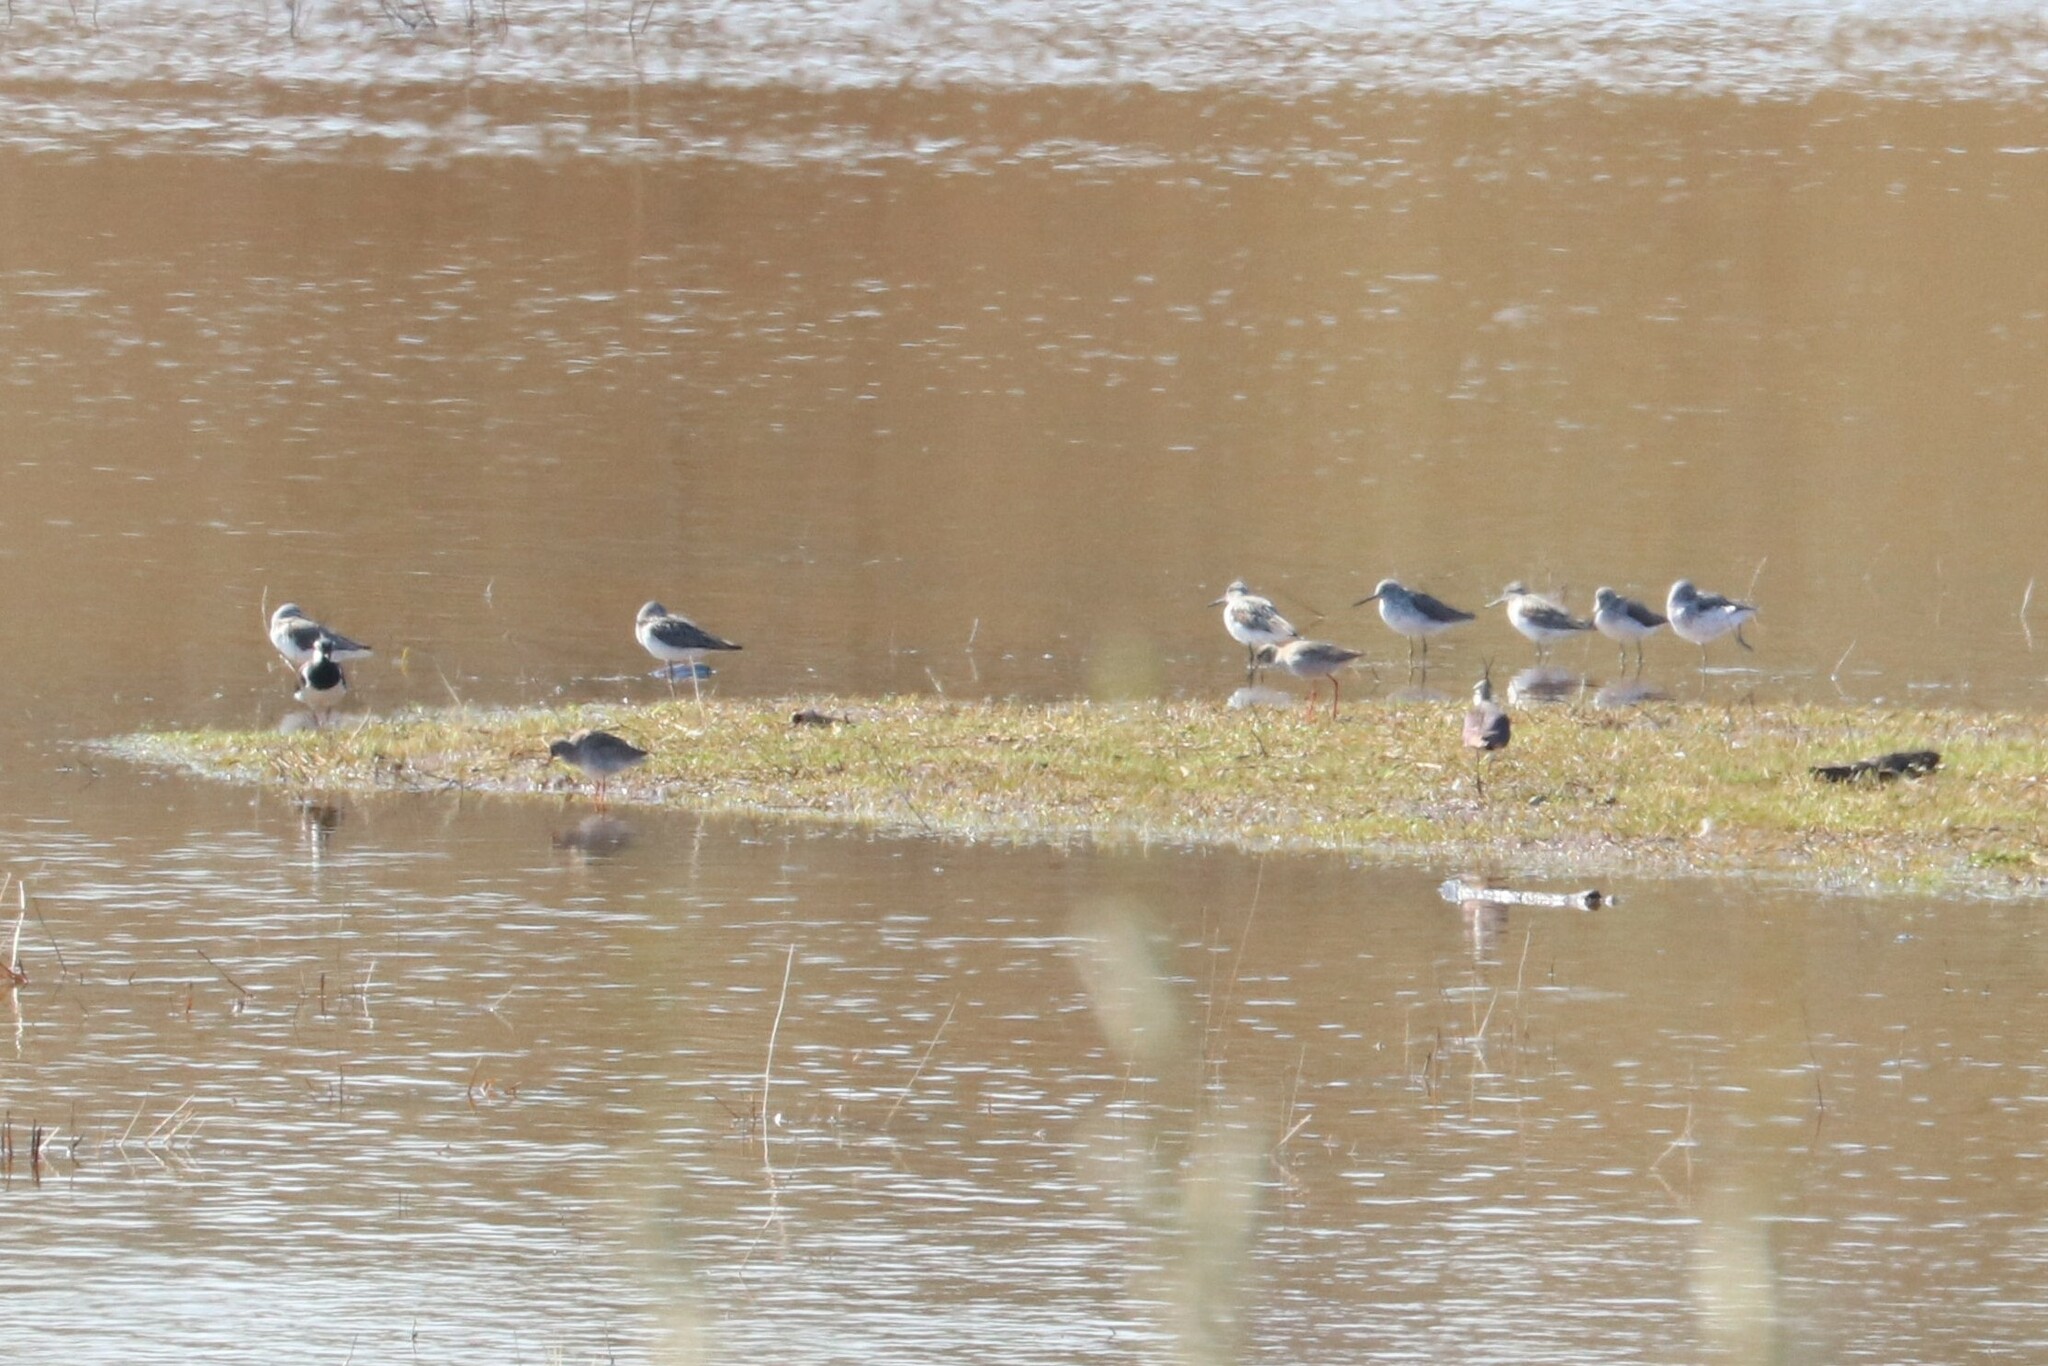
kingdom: Animalia
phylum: Chordata
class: Aves
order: Charadriiformes
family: Scolopacidae
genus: Tringa
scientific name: Tringa nebularia
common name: Common greenshank
